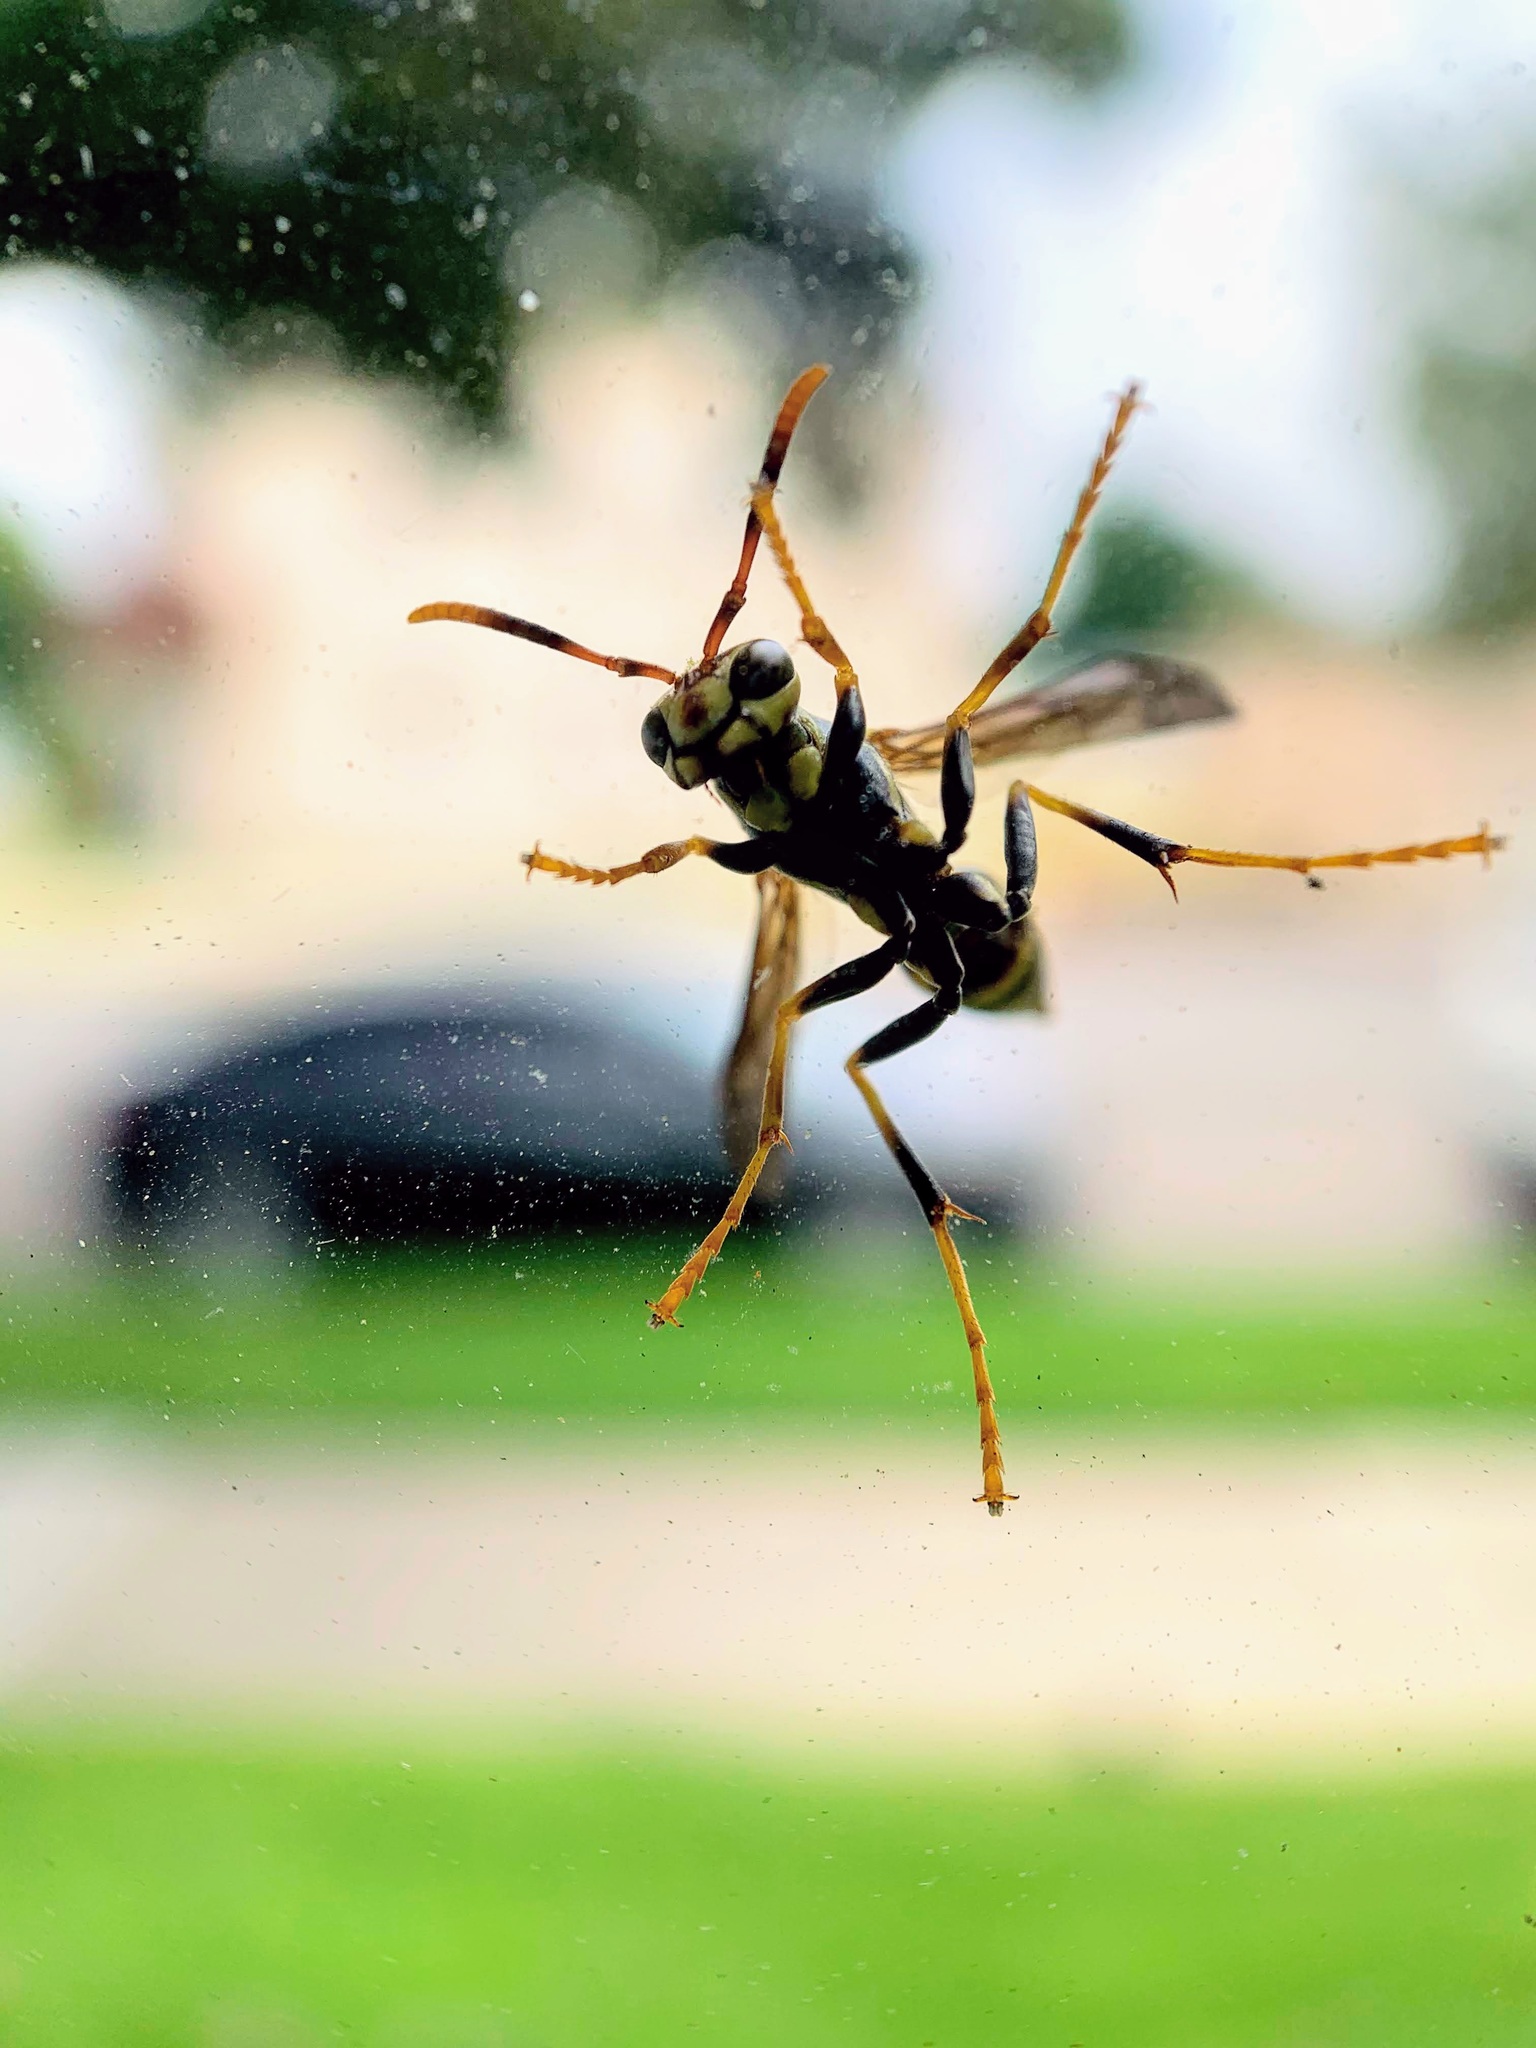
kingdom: Animalia
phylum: Arthropoda
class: Insecta
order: Hymenoptera
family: Eumenidae
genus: Polistes
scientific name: Polistes exclamans
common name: Paper wasp
